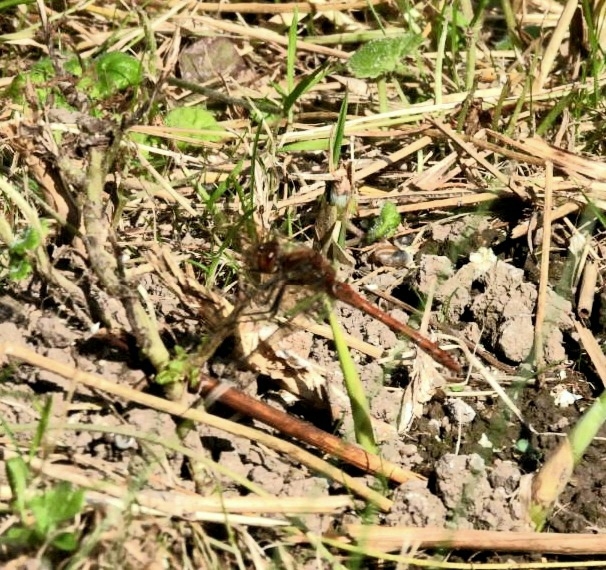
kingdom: Animalia
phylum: Arthropoda
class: Insecta
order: Odonata
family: Libellulidae
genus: Sympetrum
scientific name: Sympetrum striolatum
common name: Common darter
